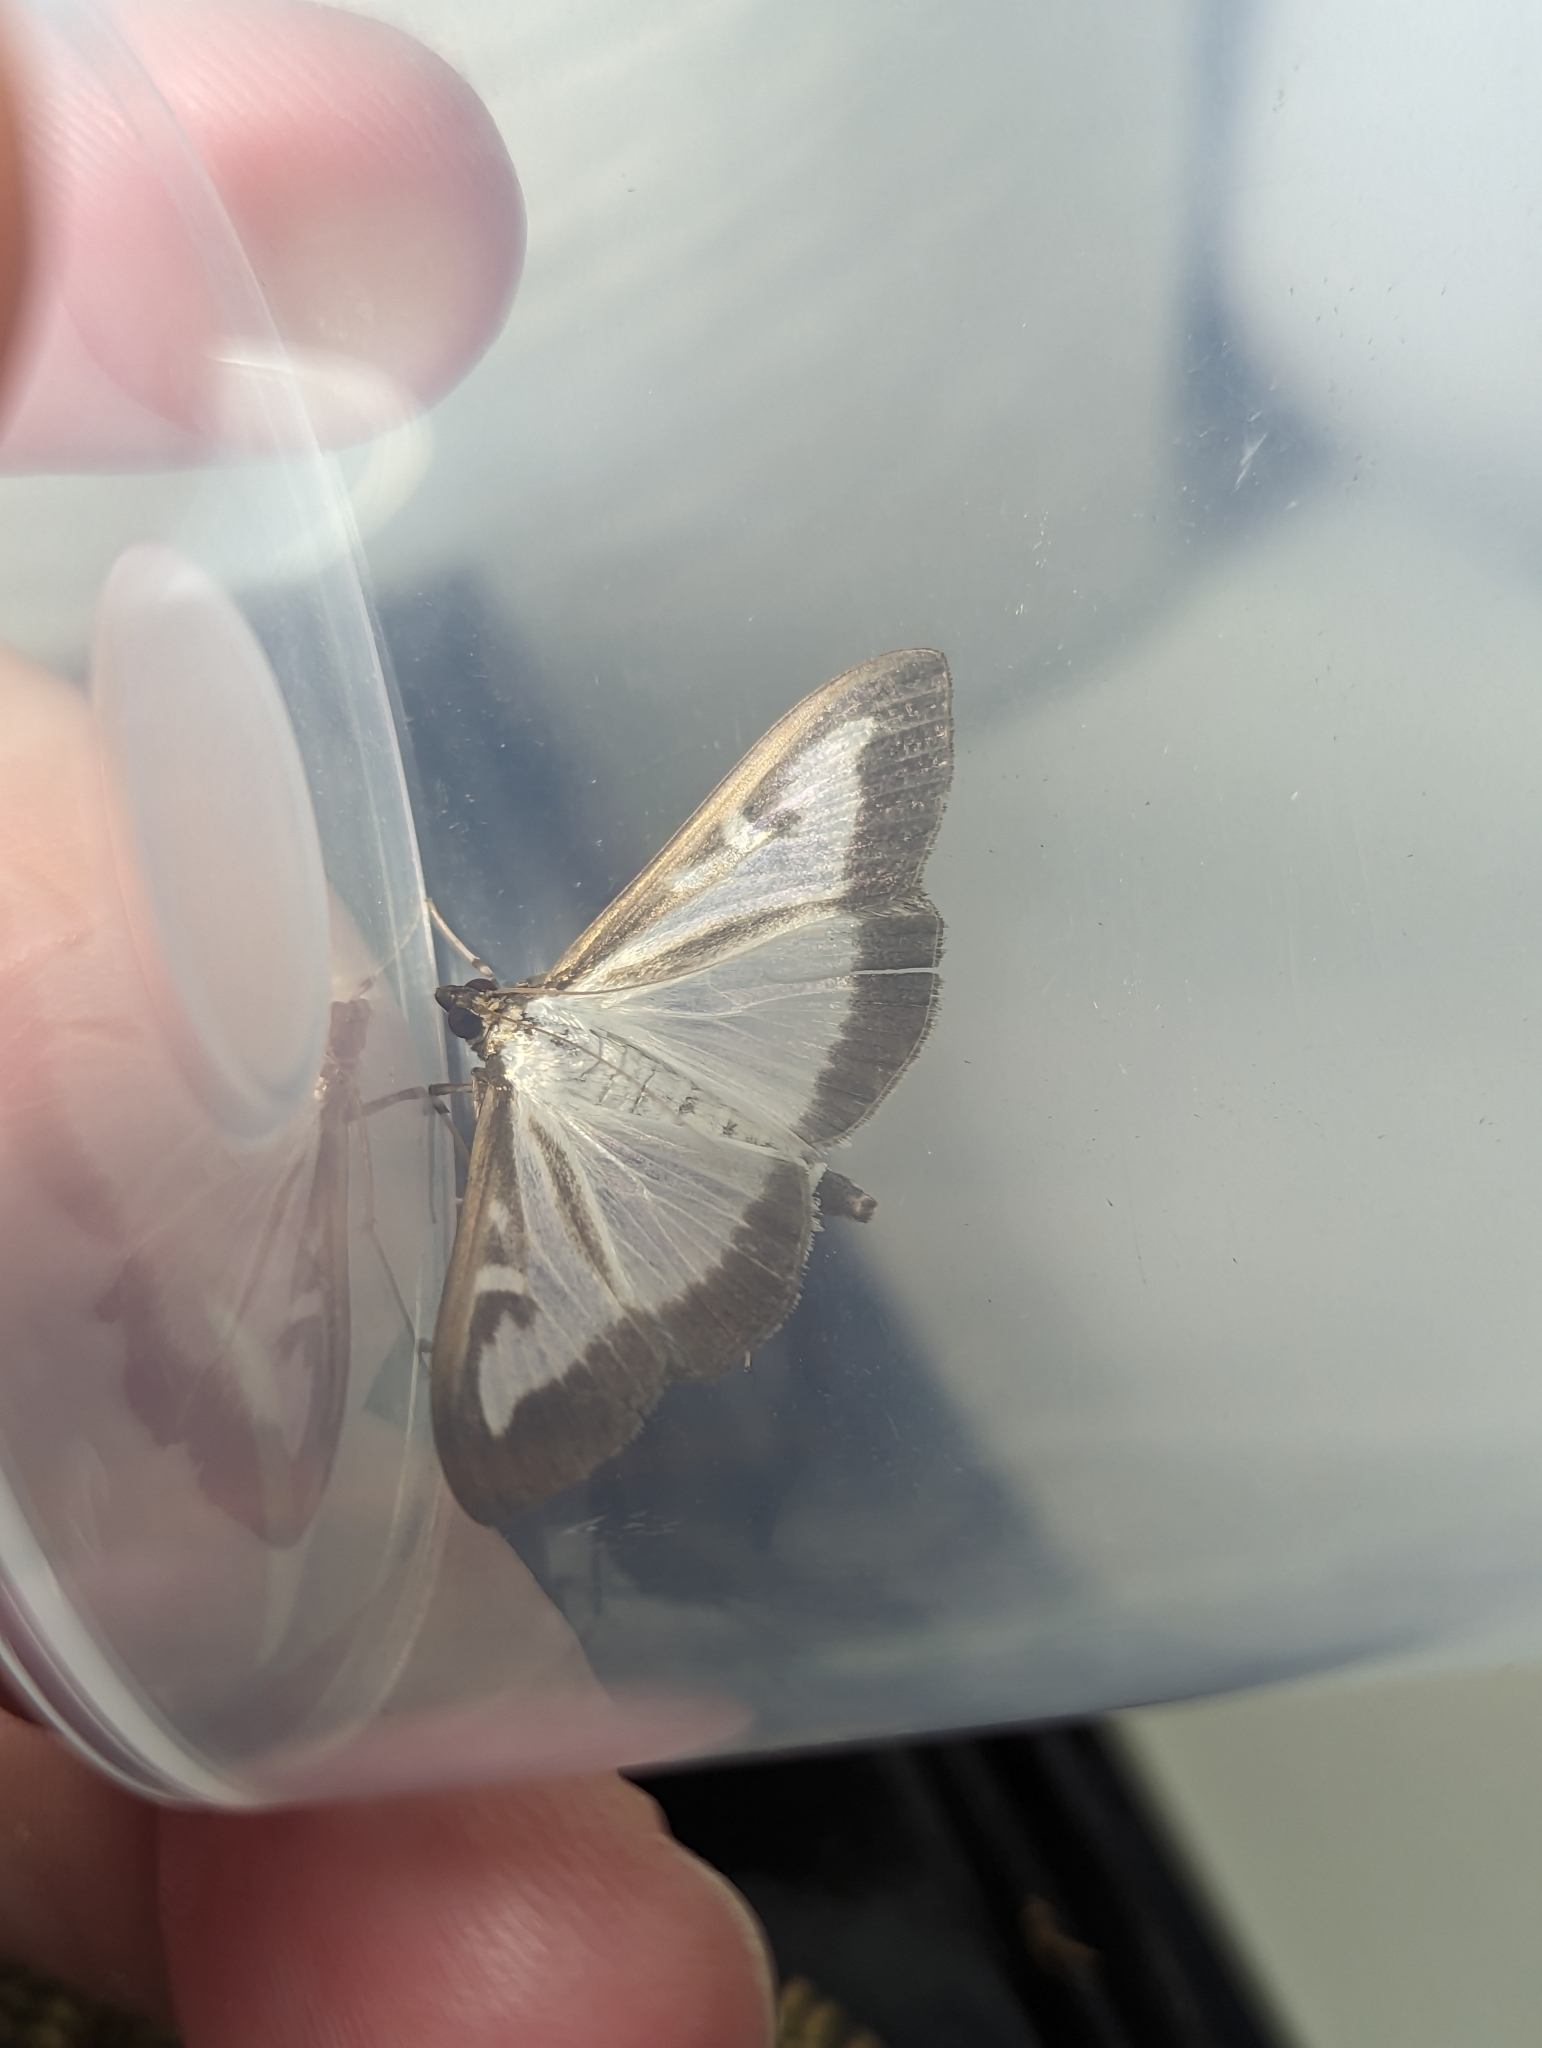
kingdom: Animalia
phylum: Arthropoda
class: Insecta
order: Lepidoptera
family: Crambidae
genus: Cydalima
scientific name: Cydalima perspectalis
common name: Box tree moth
